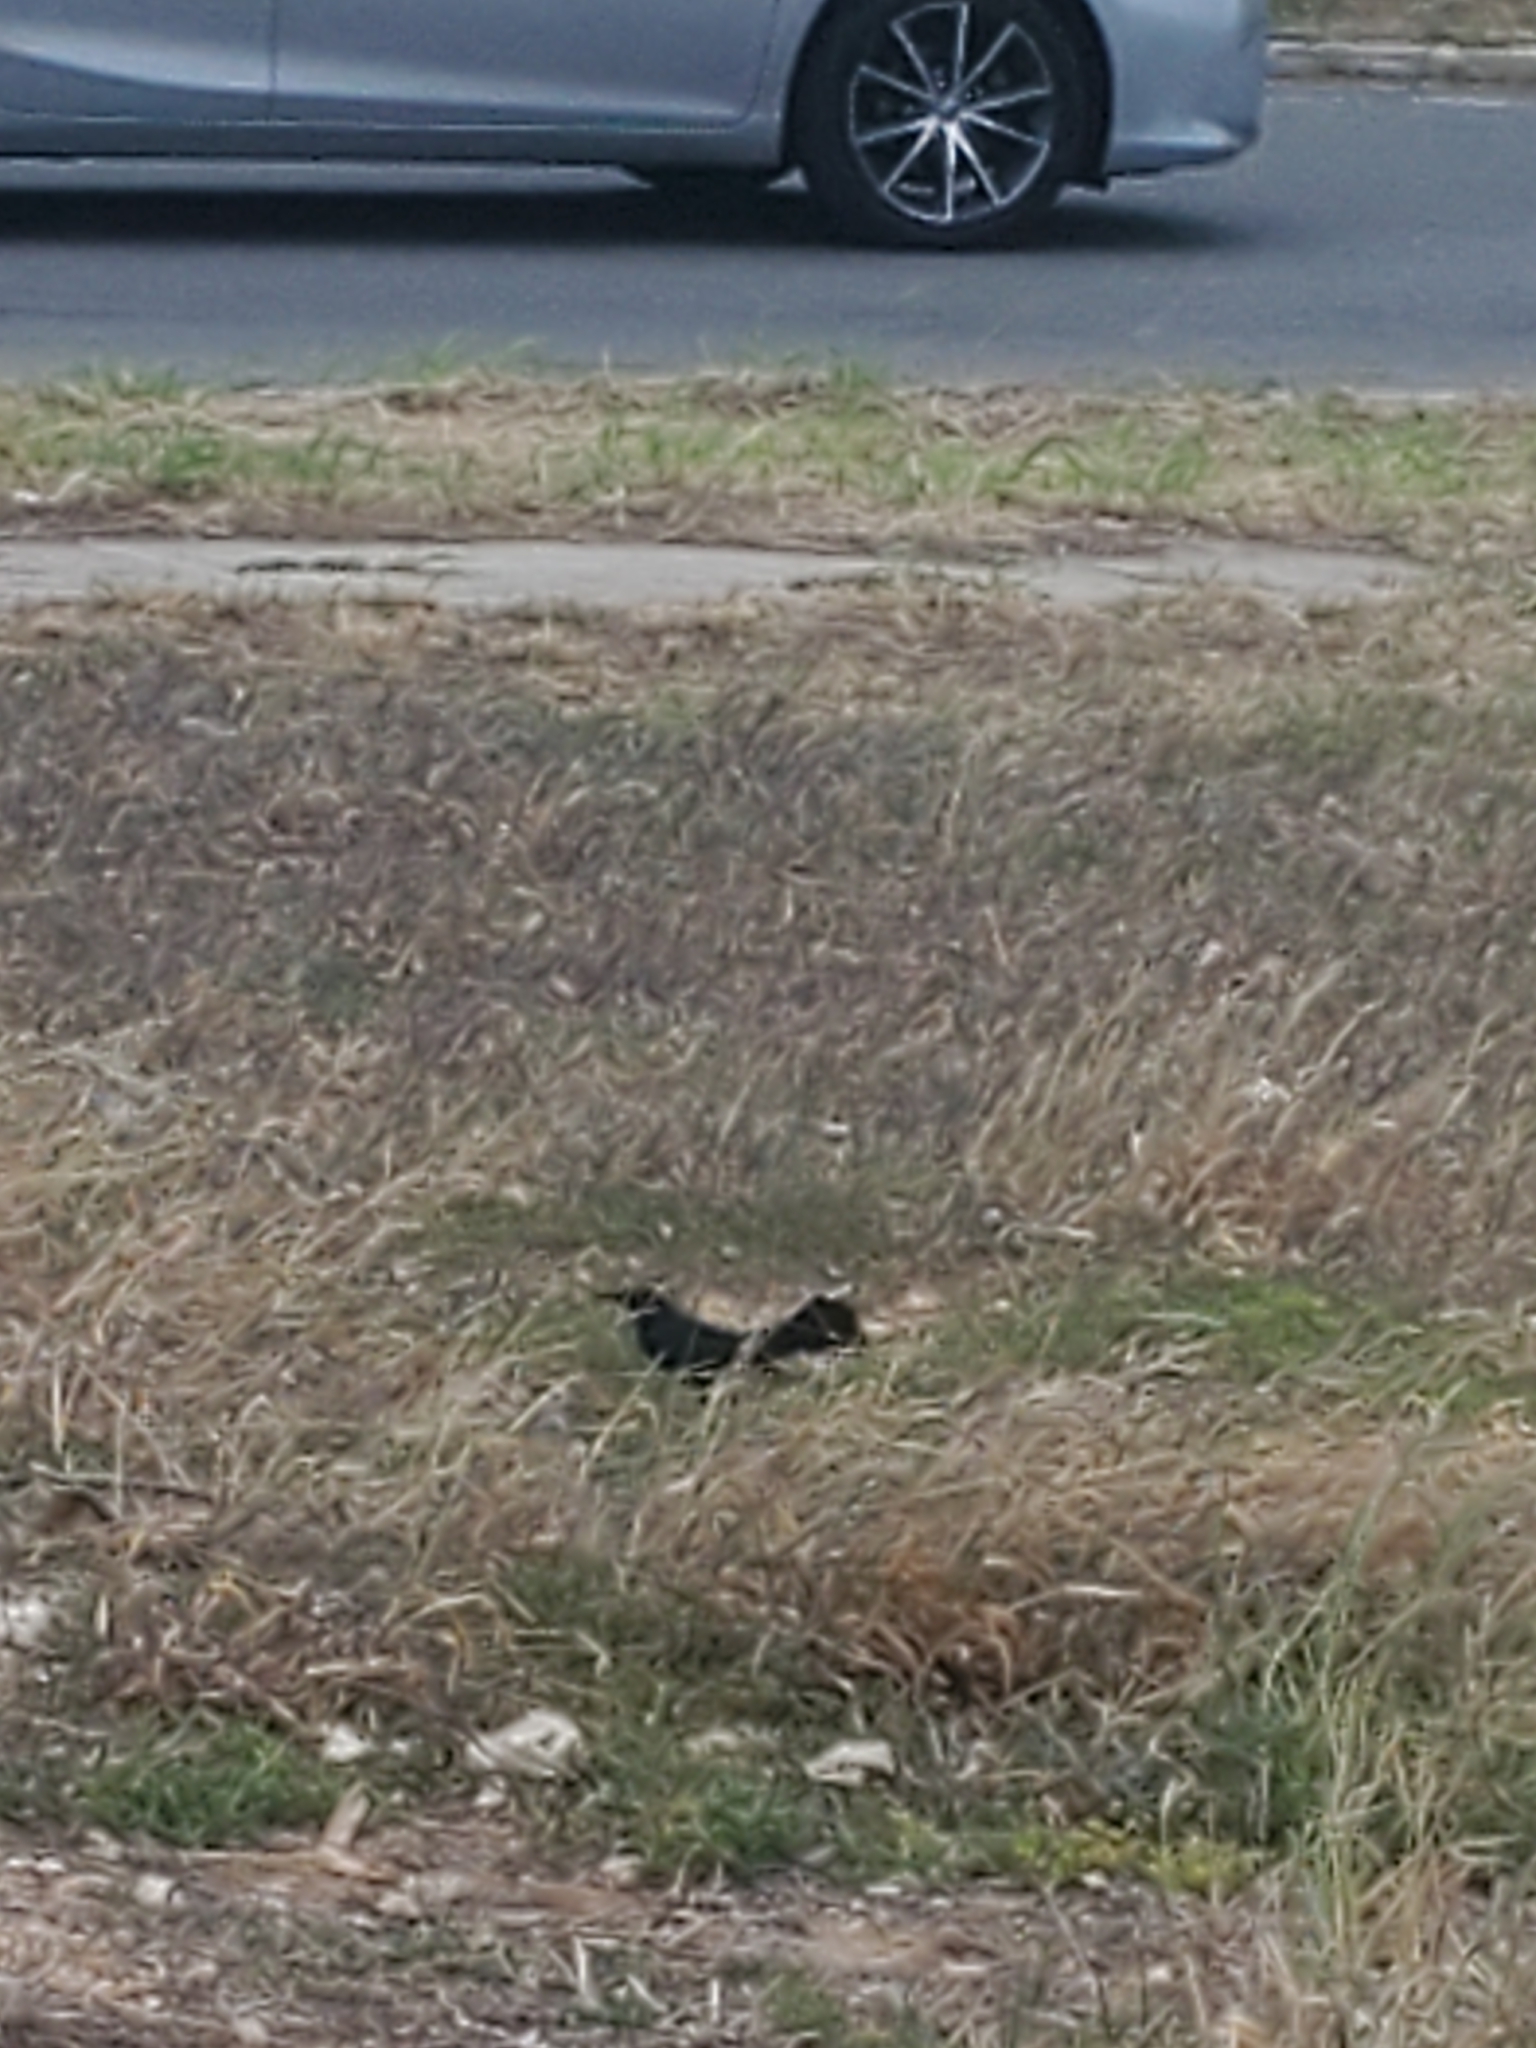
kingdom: Animalia
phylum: Chordata
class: Aves
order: Passeriformes
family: Icteridae
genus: Quiscalus
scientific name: Quiscalus niger
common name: Greater antillean grackle
